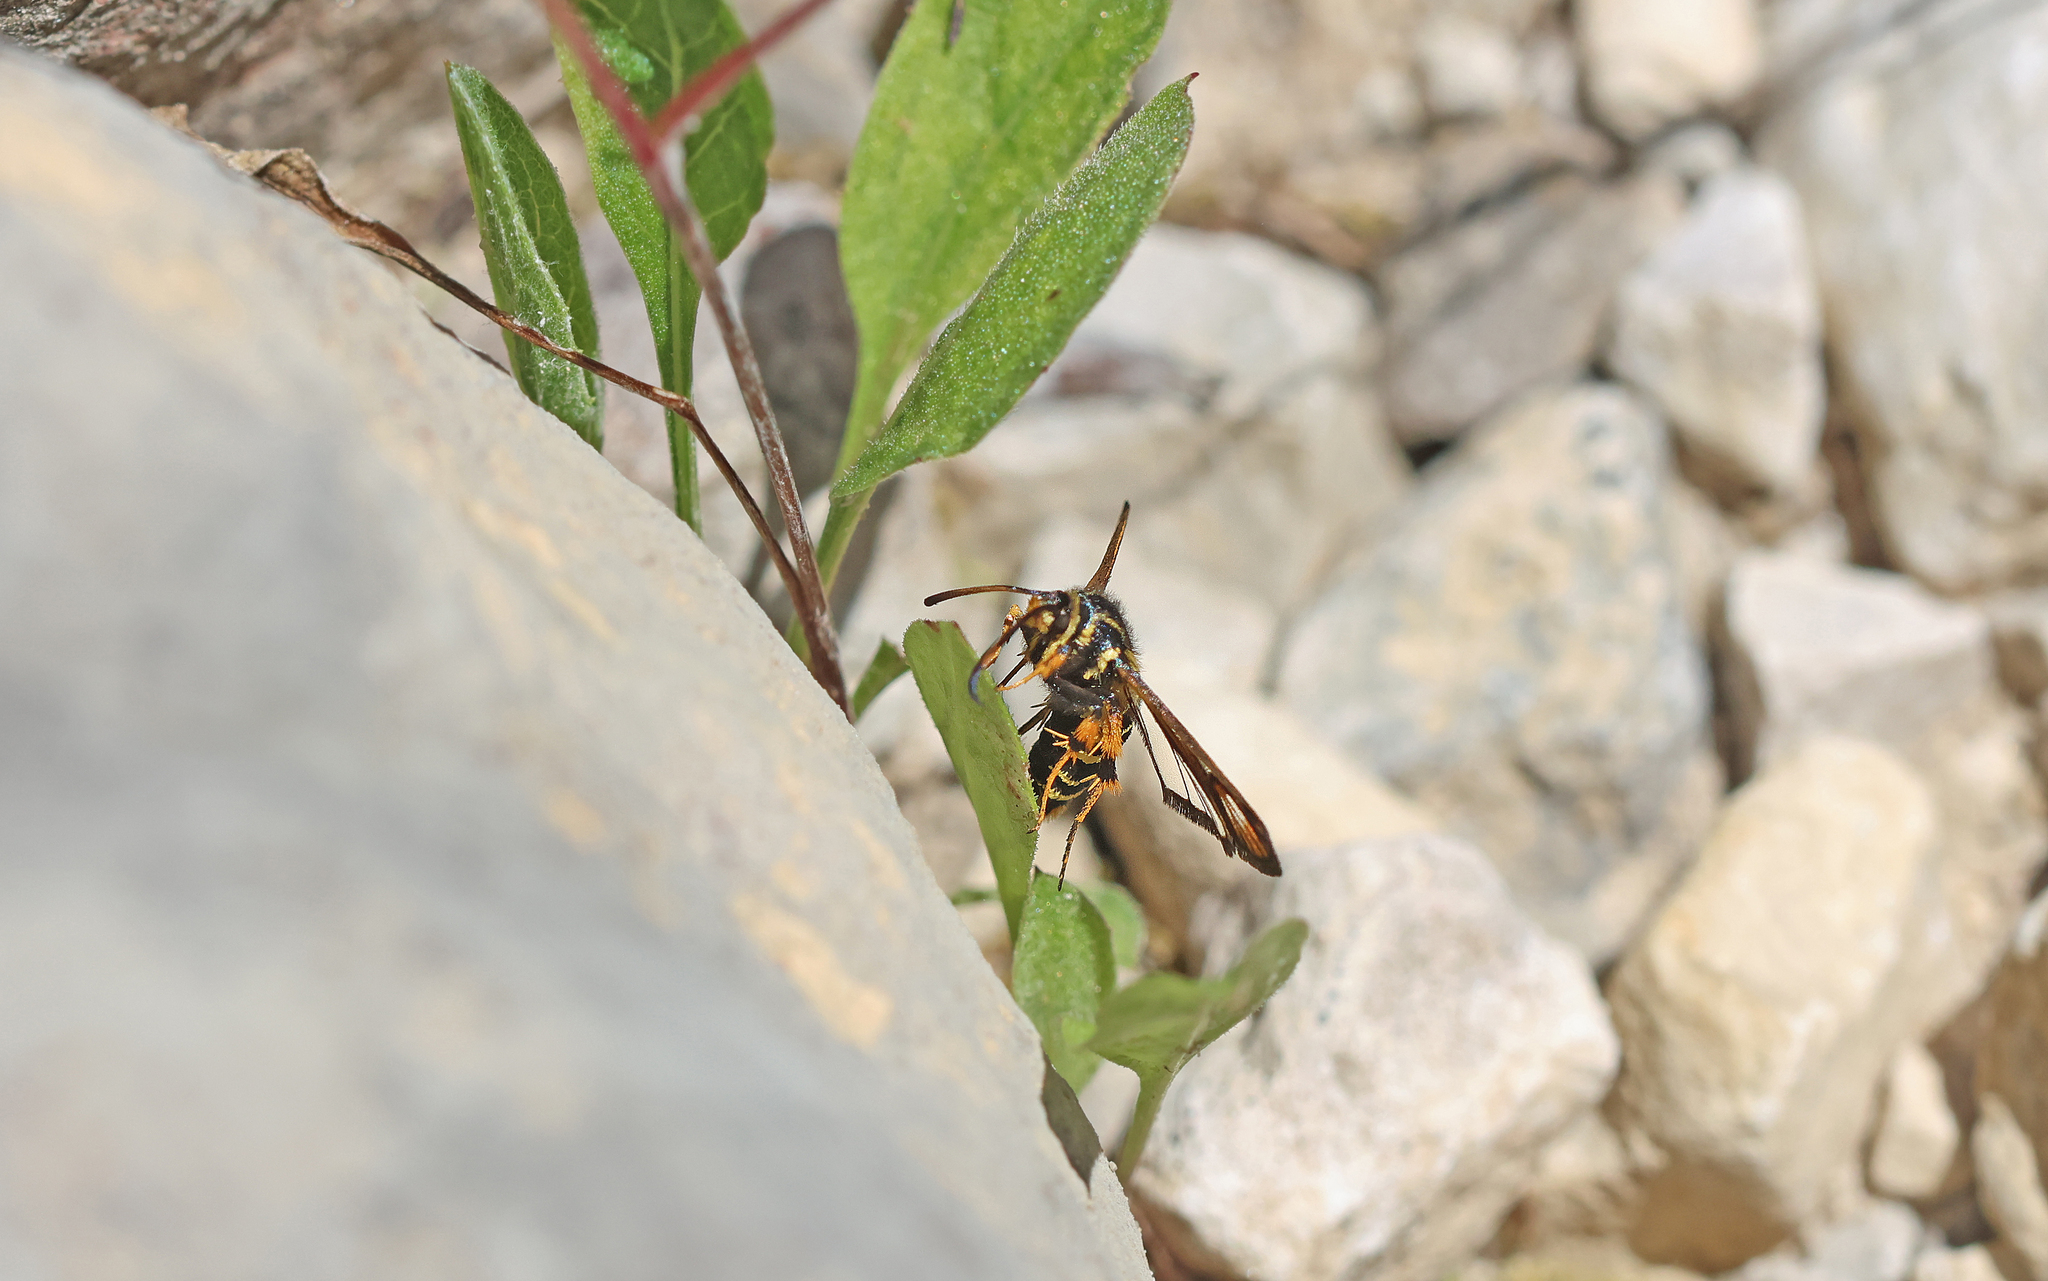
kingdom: Animalia
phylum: Arthropoda
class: Insecta
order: Lepidoptera
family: Sesiidae
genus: Bembecia
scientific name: Bembecia ichneumoniformis
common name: Six-belted clearwing
